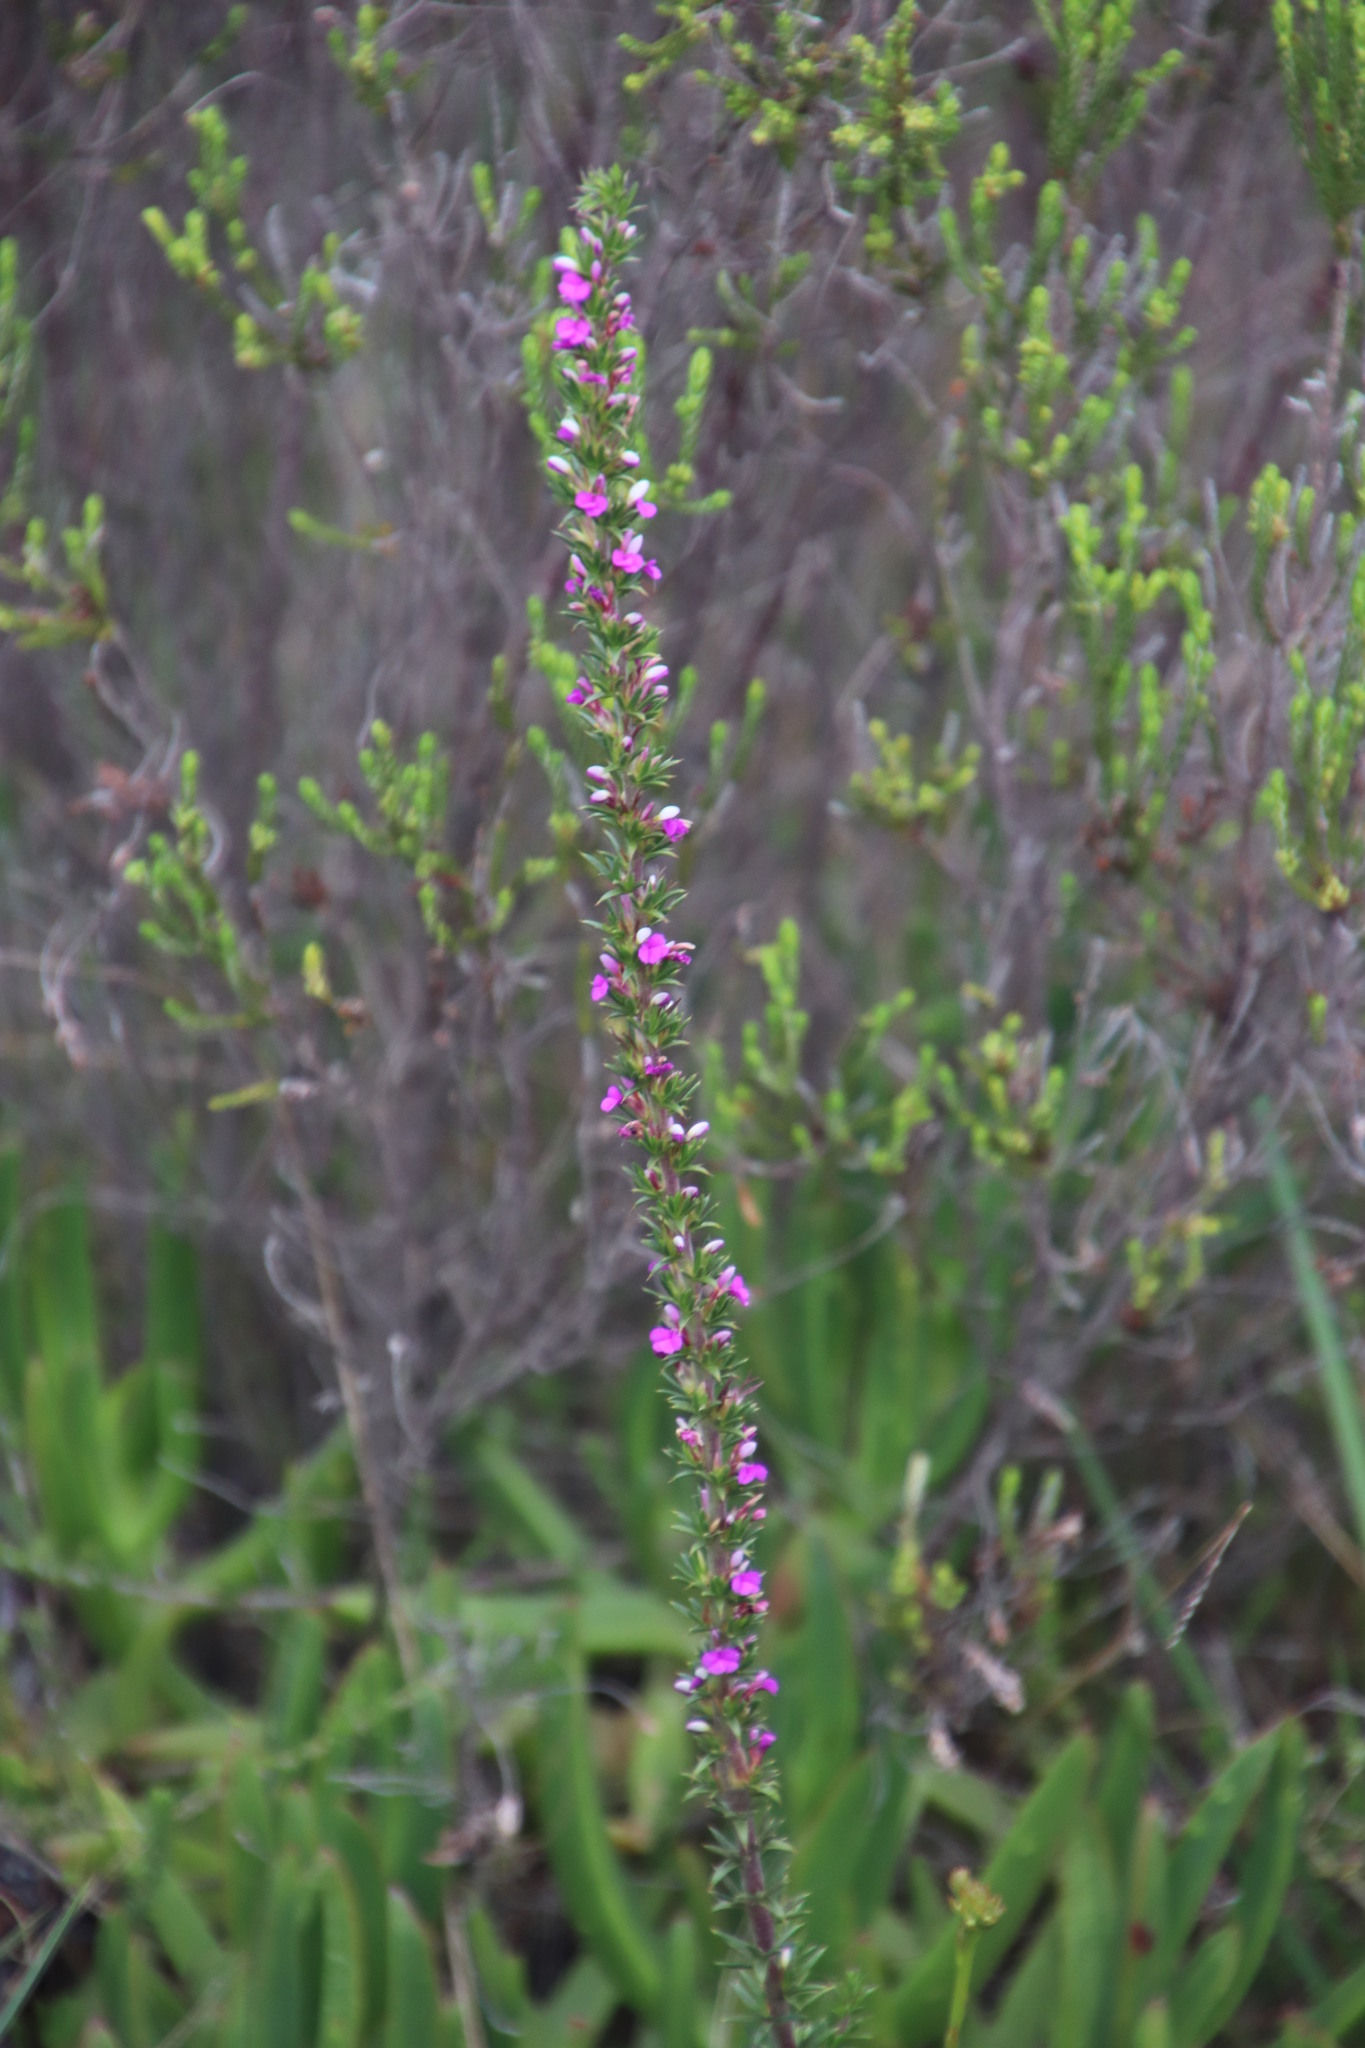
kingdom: Plantae
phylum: Tracheophyta
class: Magnoliopsida
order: Fabales
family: Polygalaceae
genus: Muraltia
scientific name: Muraltia heisteria
